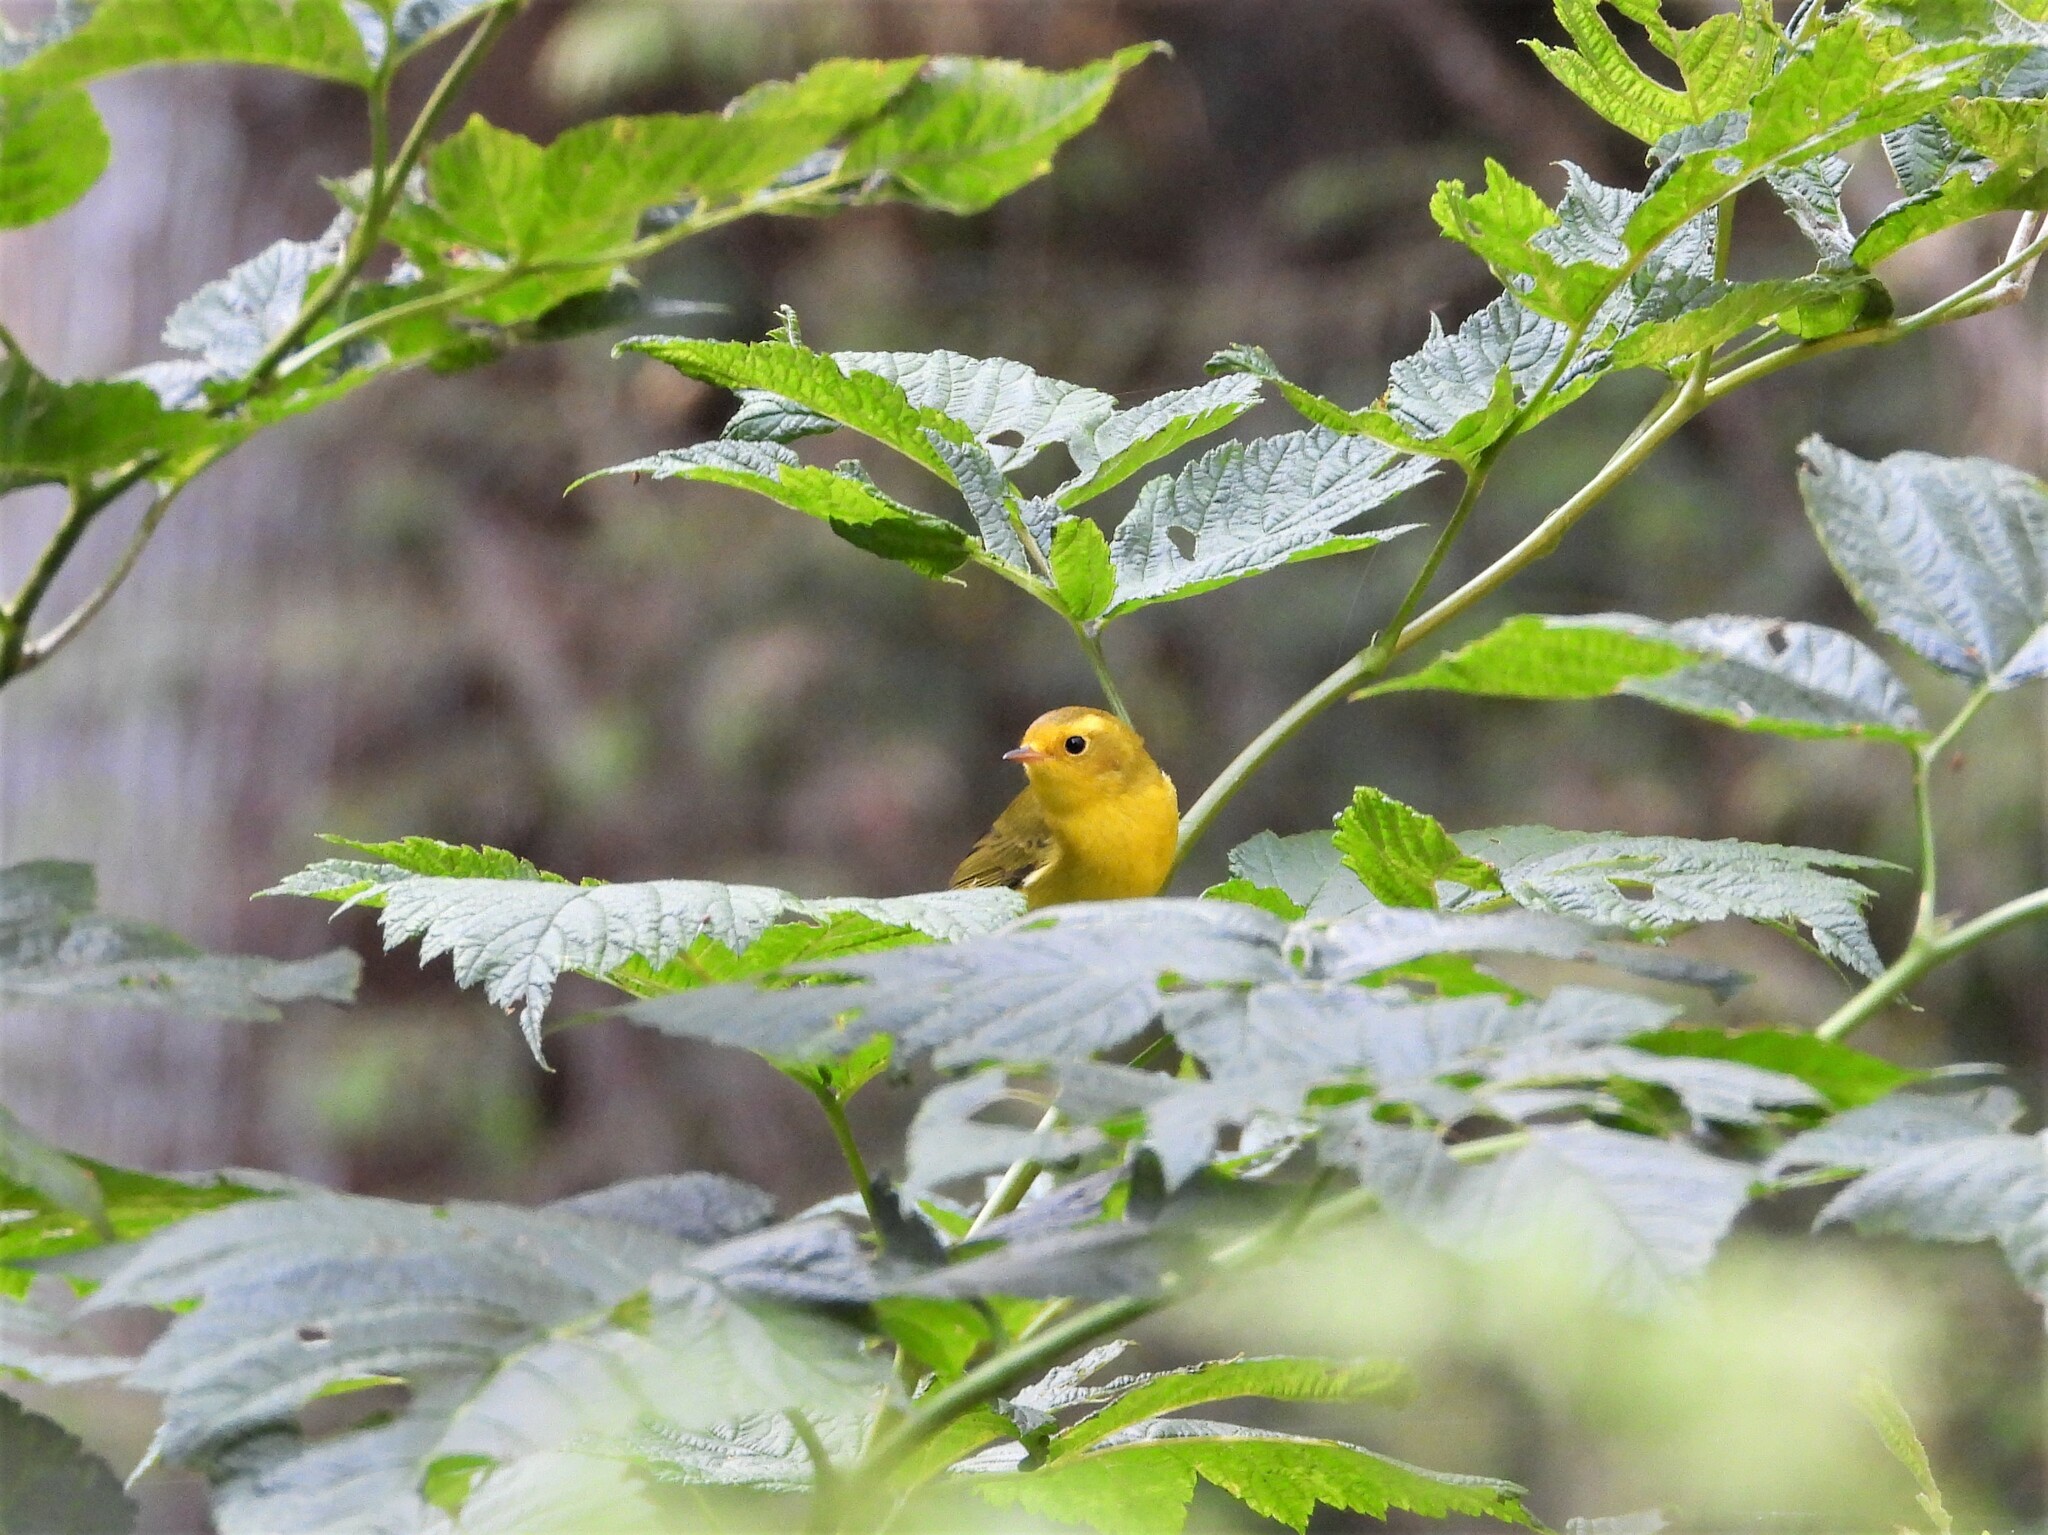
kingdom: Animalia
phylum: Chordata
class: Aves
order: Passeriformes
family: Parulidae
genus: Cardellina
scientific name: Cardellina pusilla
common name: Wilson's warbler
